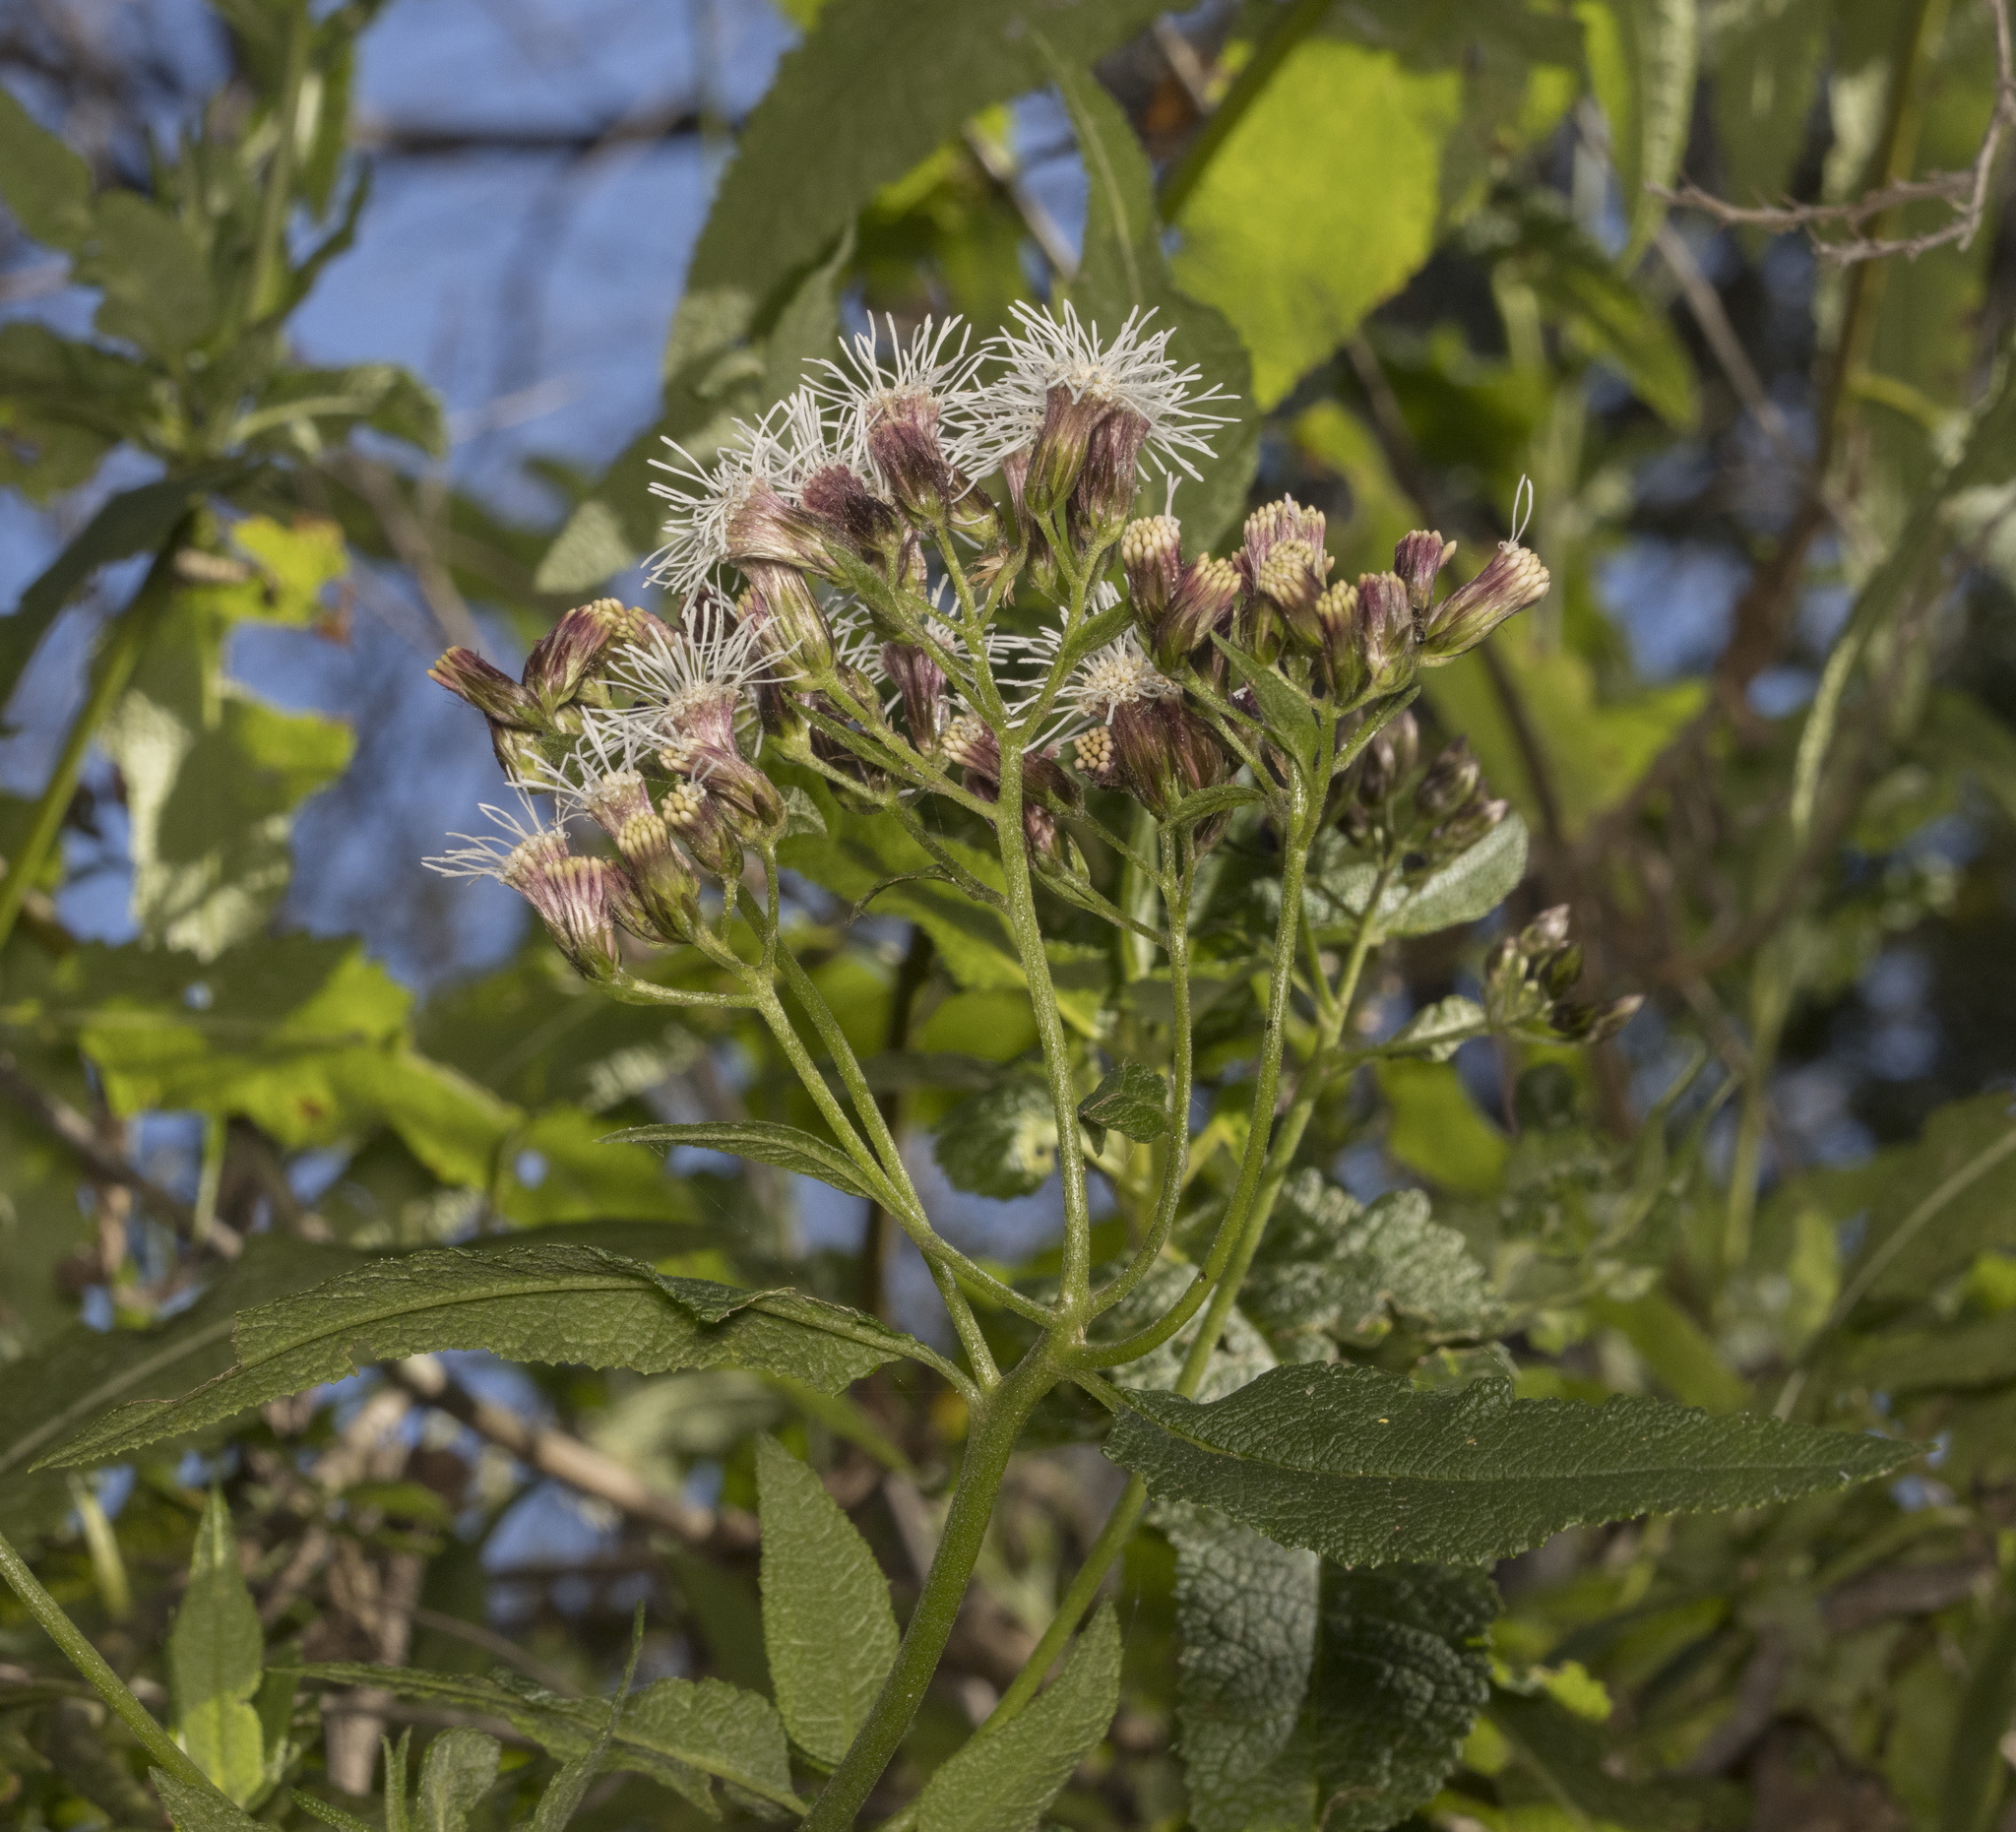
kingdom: Plantae
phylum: Tracheophyta
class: Magnoliopsida
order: Asterales
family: Asteraceae
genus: Aristeguietia
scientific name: Aristeguietia salvia
